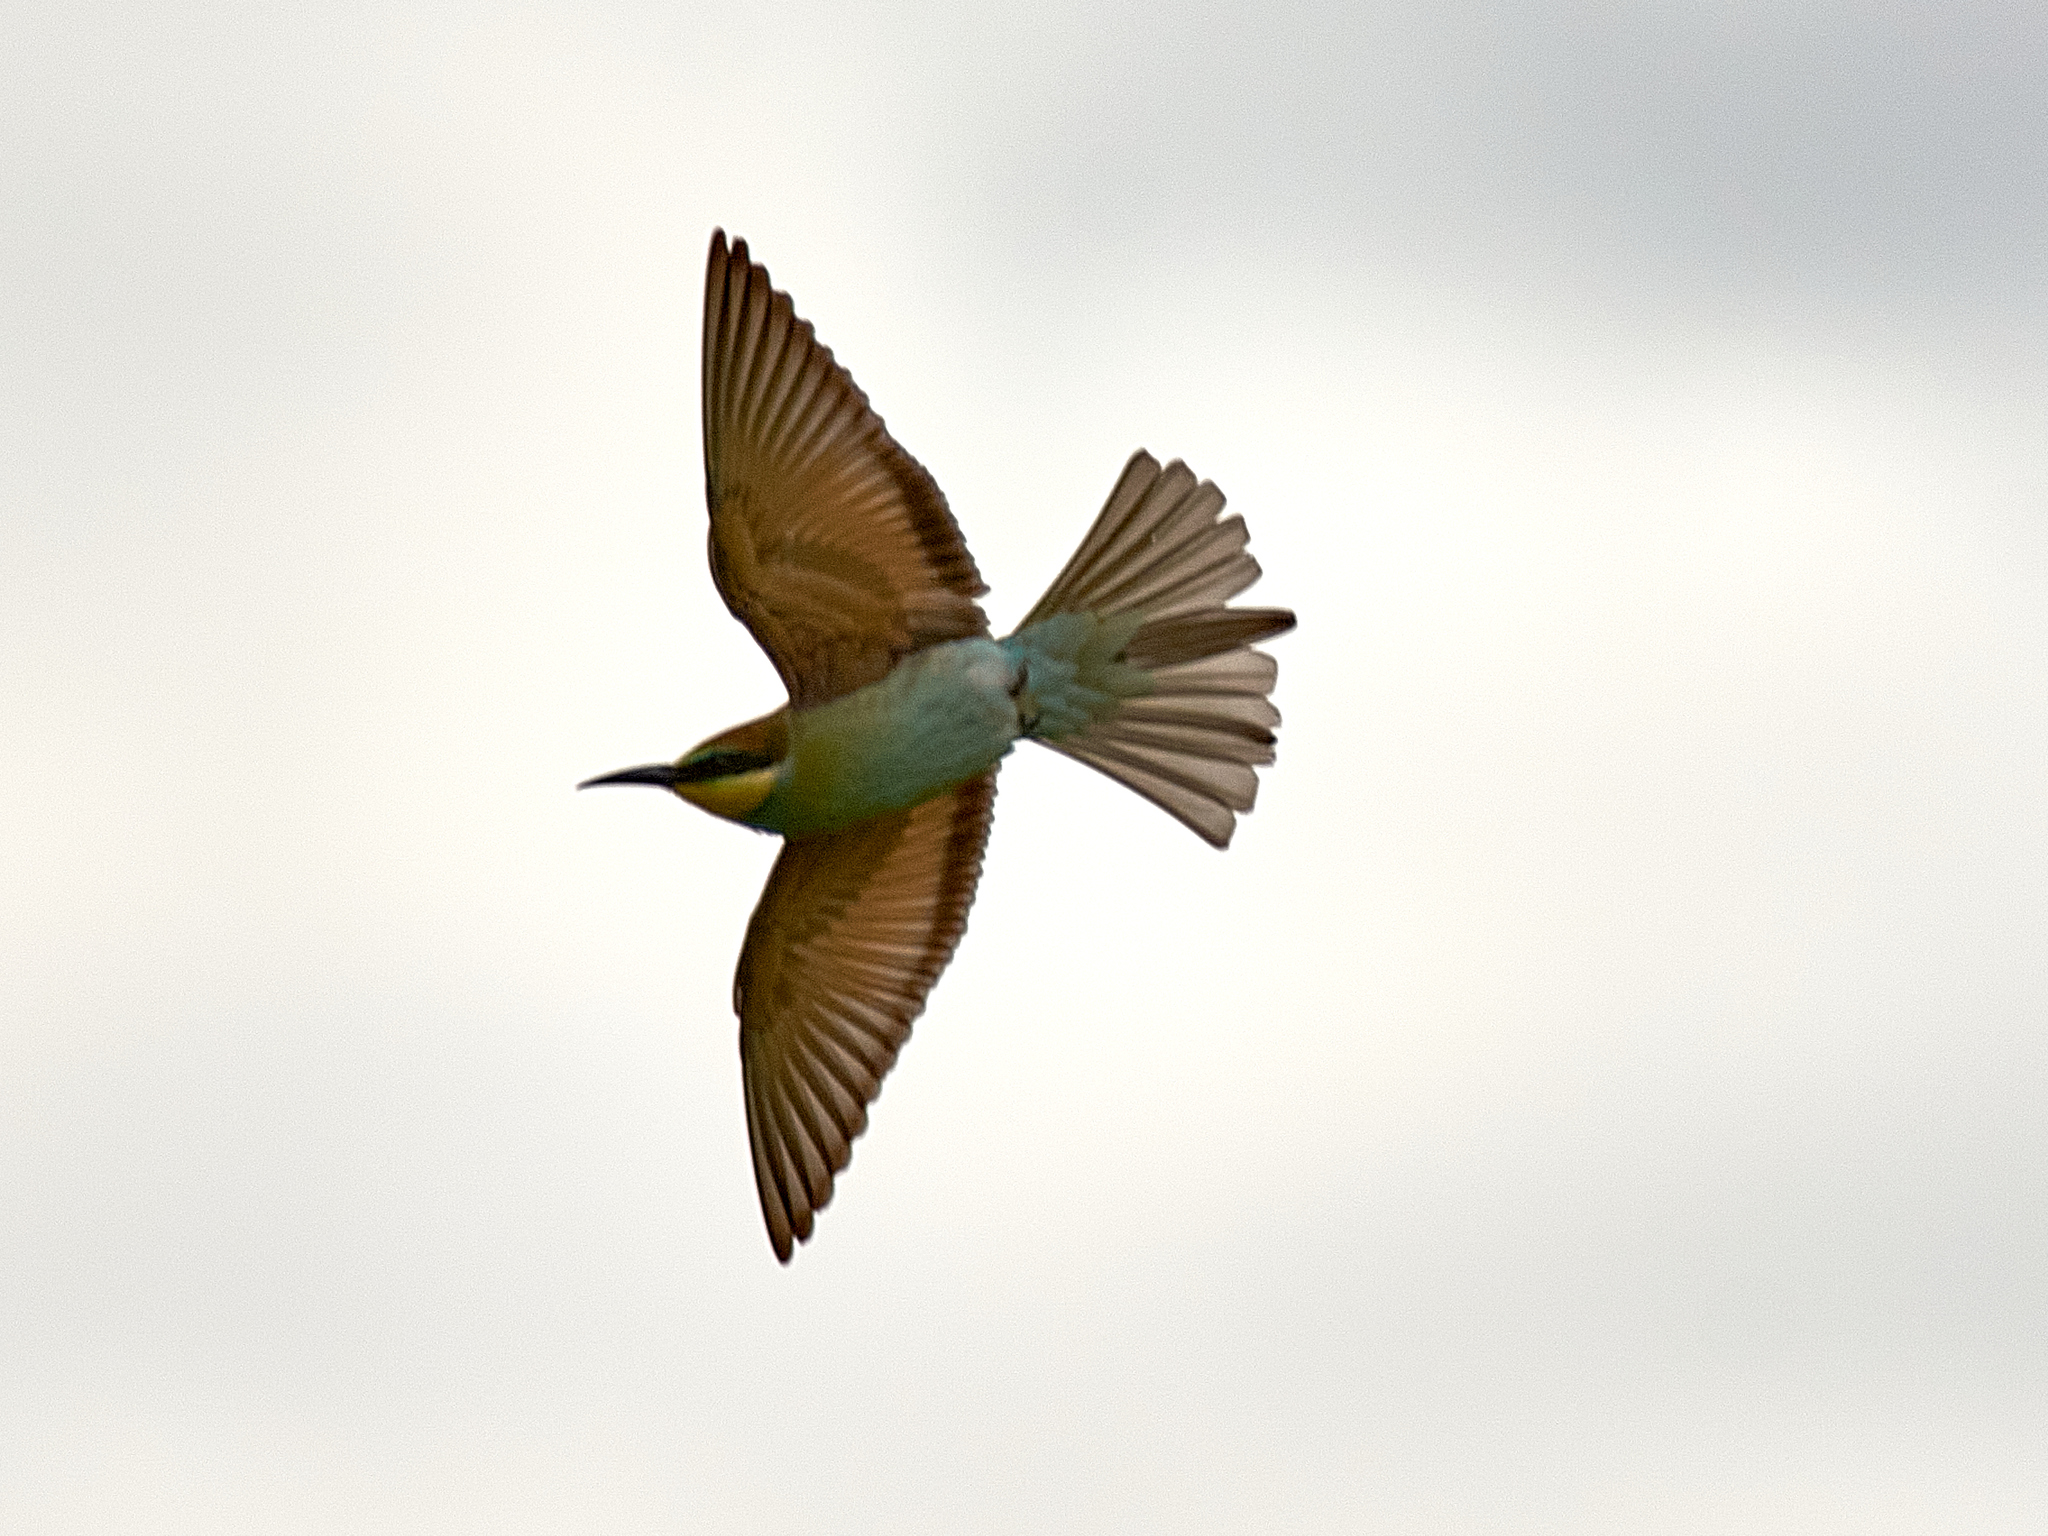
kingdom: Animalia
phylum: Chordata
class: Aves
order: Coraciiformes
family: Meropidae
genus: Merops
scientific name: Merops apiaster
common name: European bee-eater
